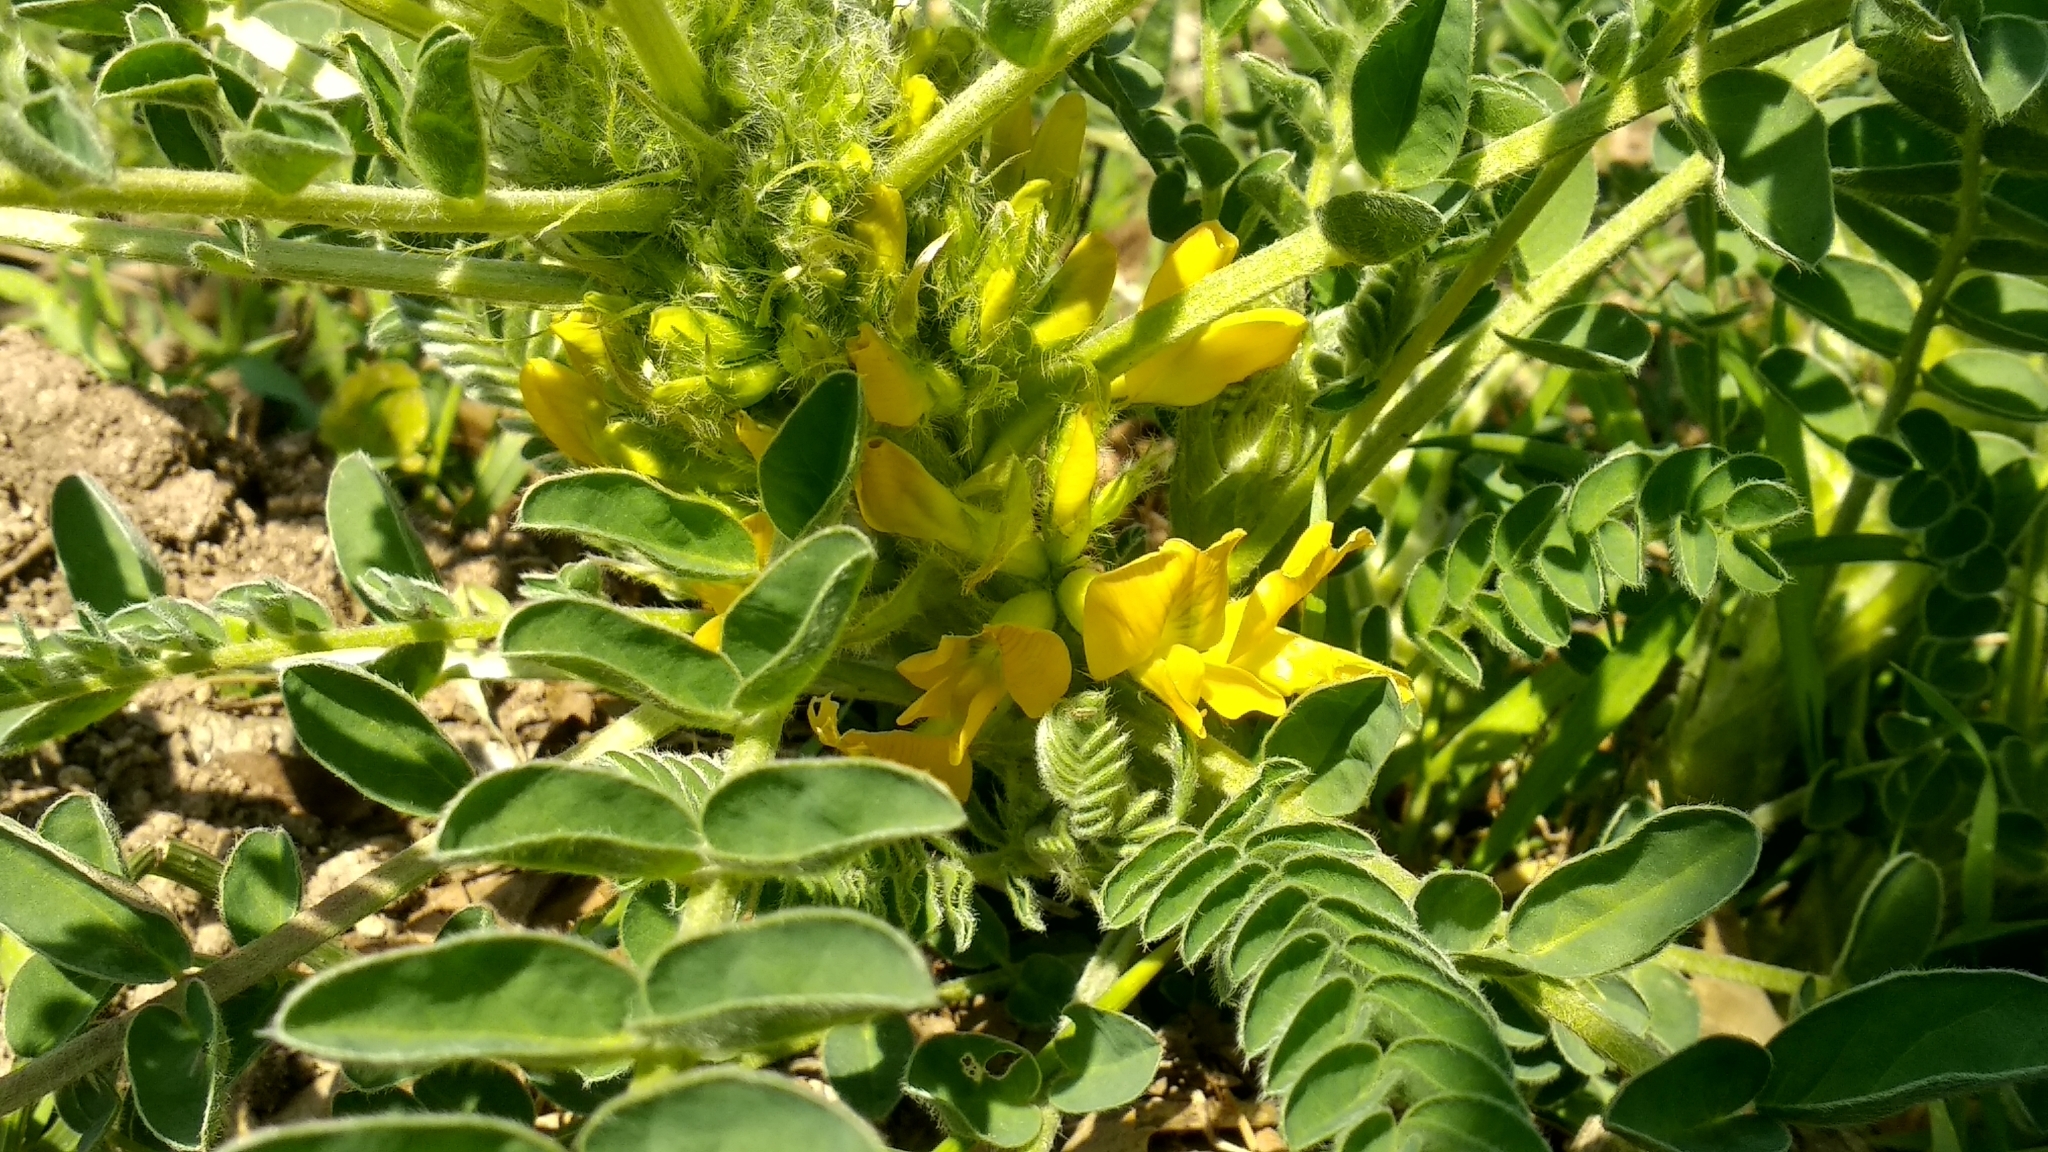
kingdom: Plantae
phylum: Tracheophyta
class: Magnoliopsida
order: Fabales
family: Fabaceae
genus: Astragalus
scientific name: Astragalus macrocarpus
